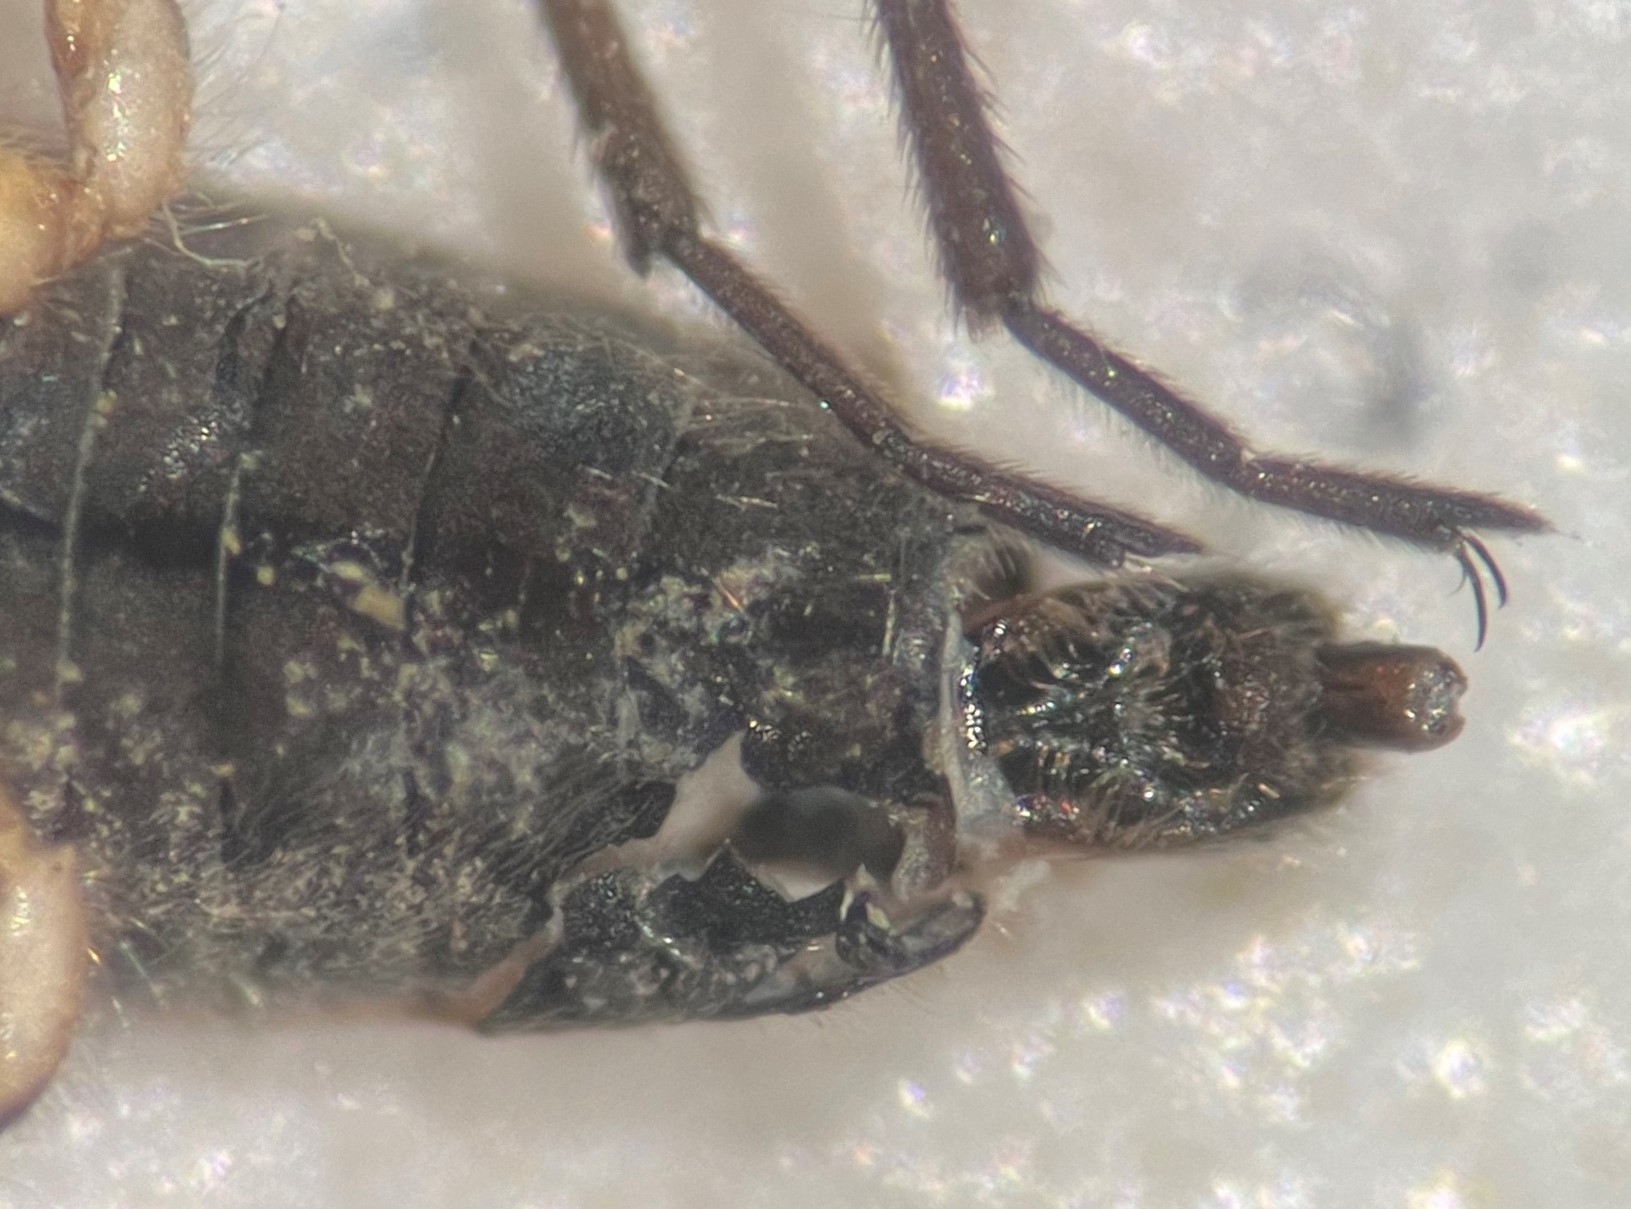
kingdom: Animalia
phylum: Arthropoda
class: Insecta
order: Hemiptera
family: Veliidae
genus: Microvelia
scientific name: Microvelia beameri
